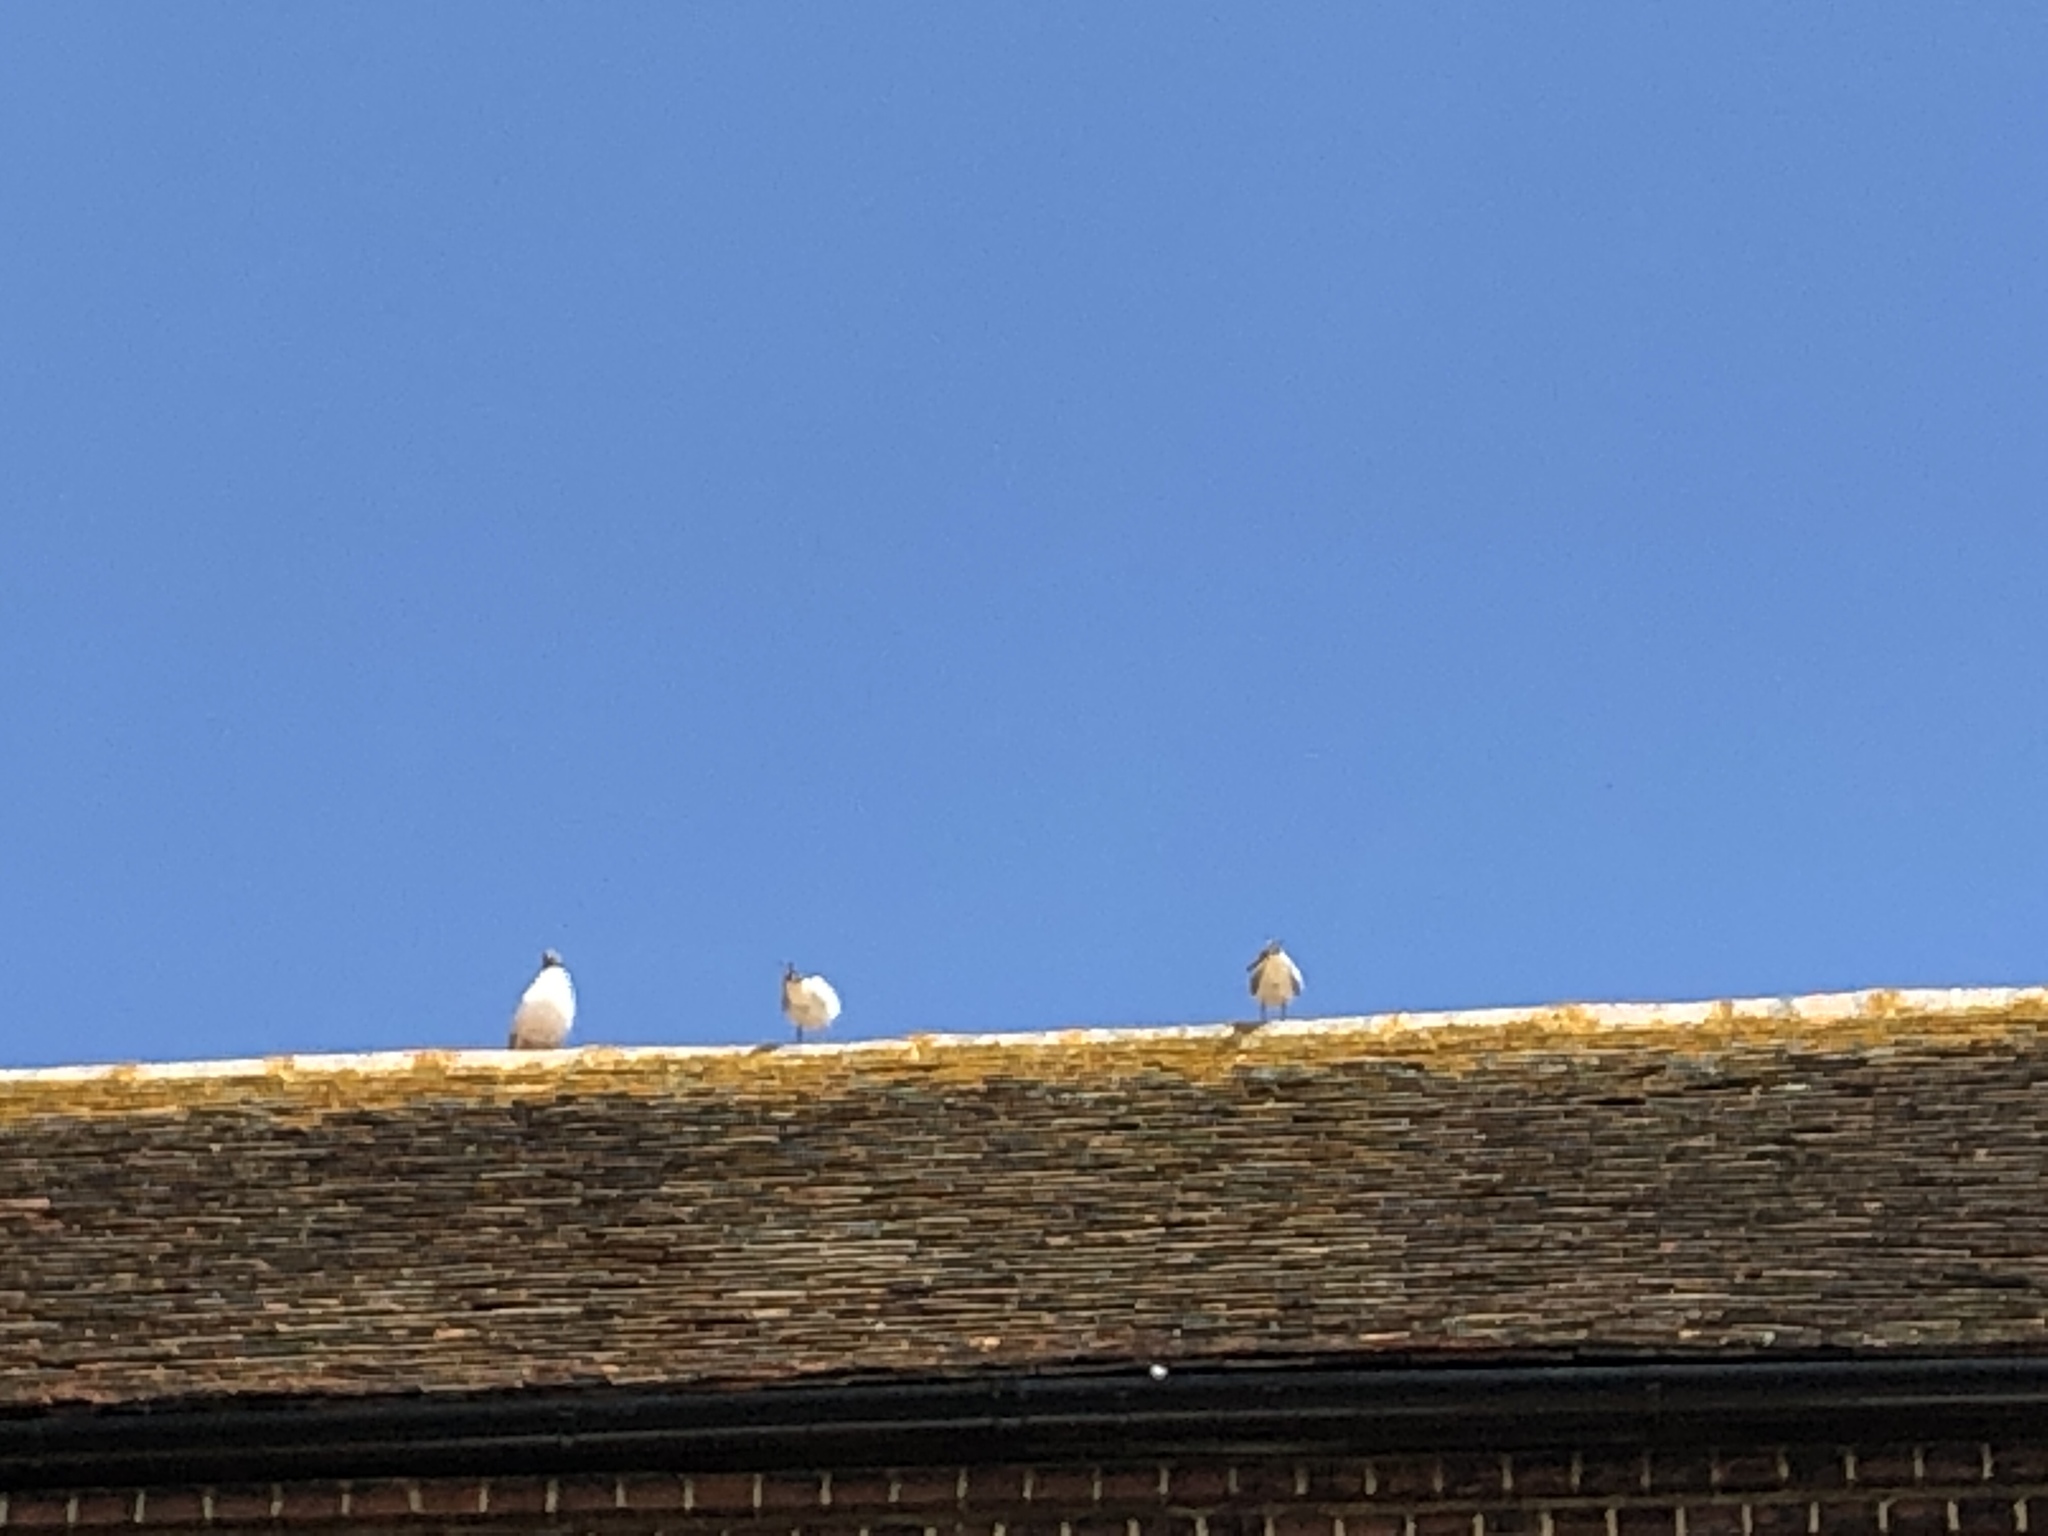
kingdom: Animalia
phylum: Chordata
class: Aves
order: Charadriiformes
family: Laridae
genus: Chroicocephalus
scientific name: Chroicocephalus ridibundus
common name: Black-headed gull
